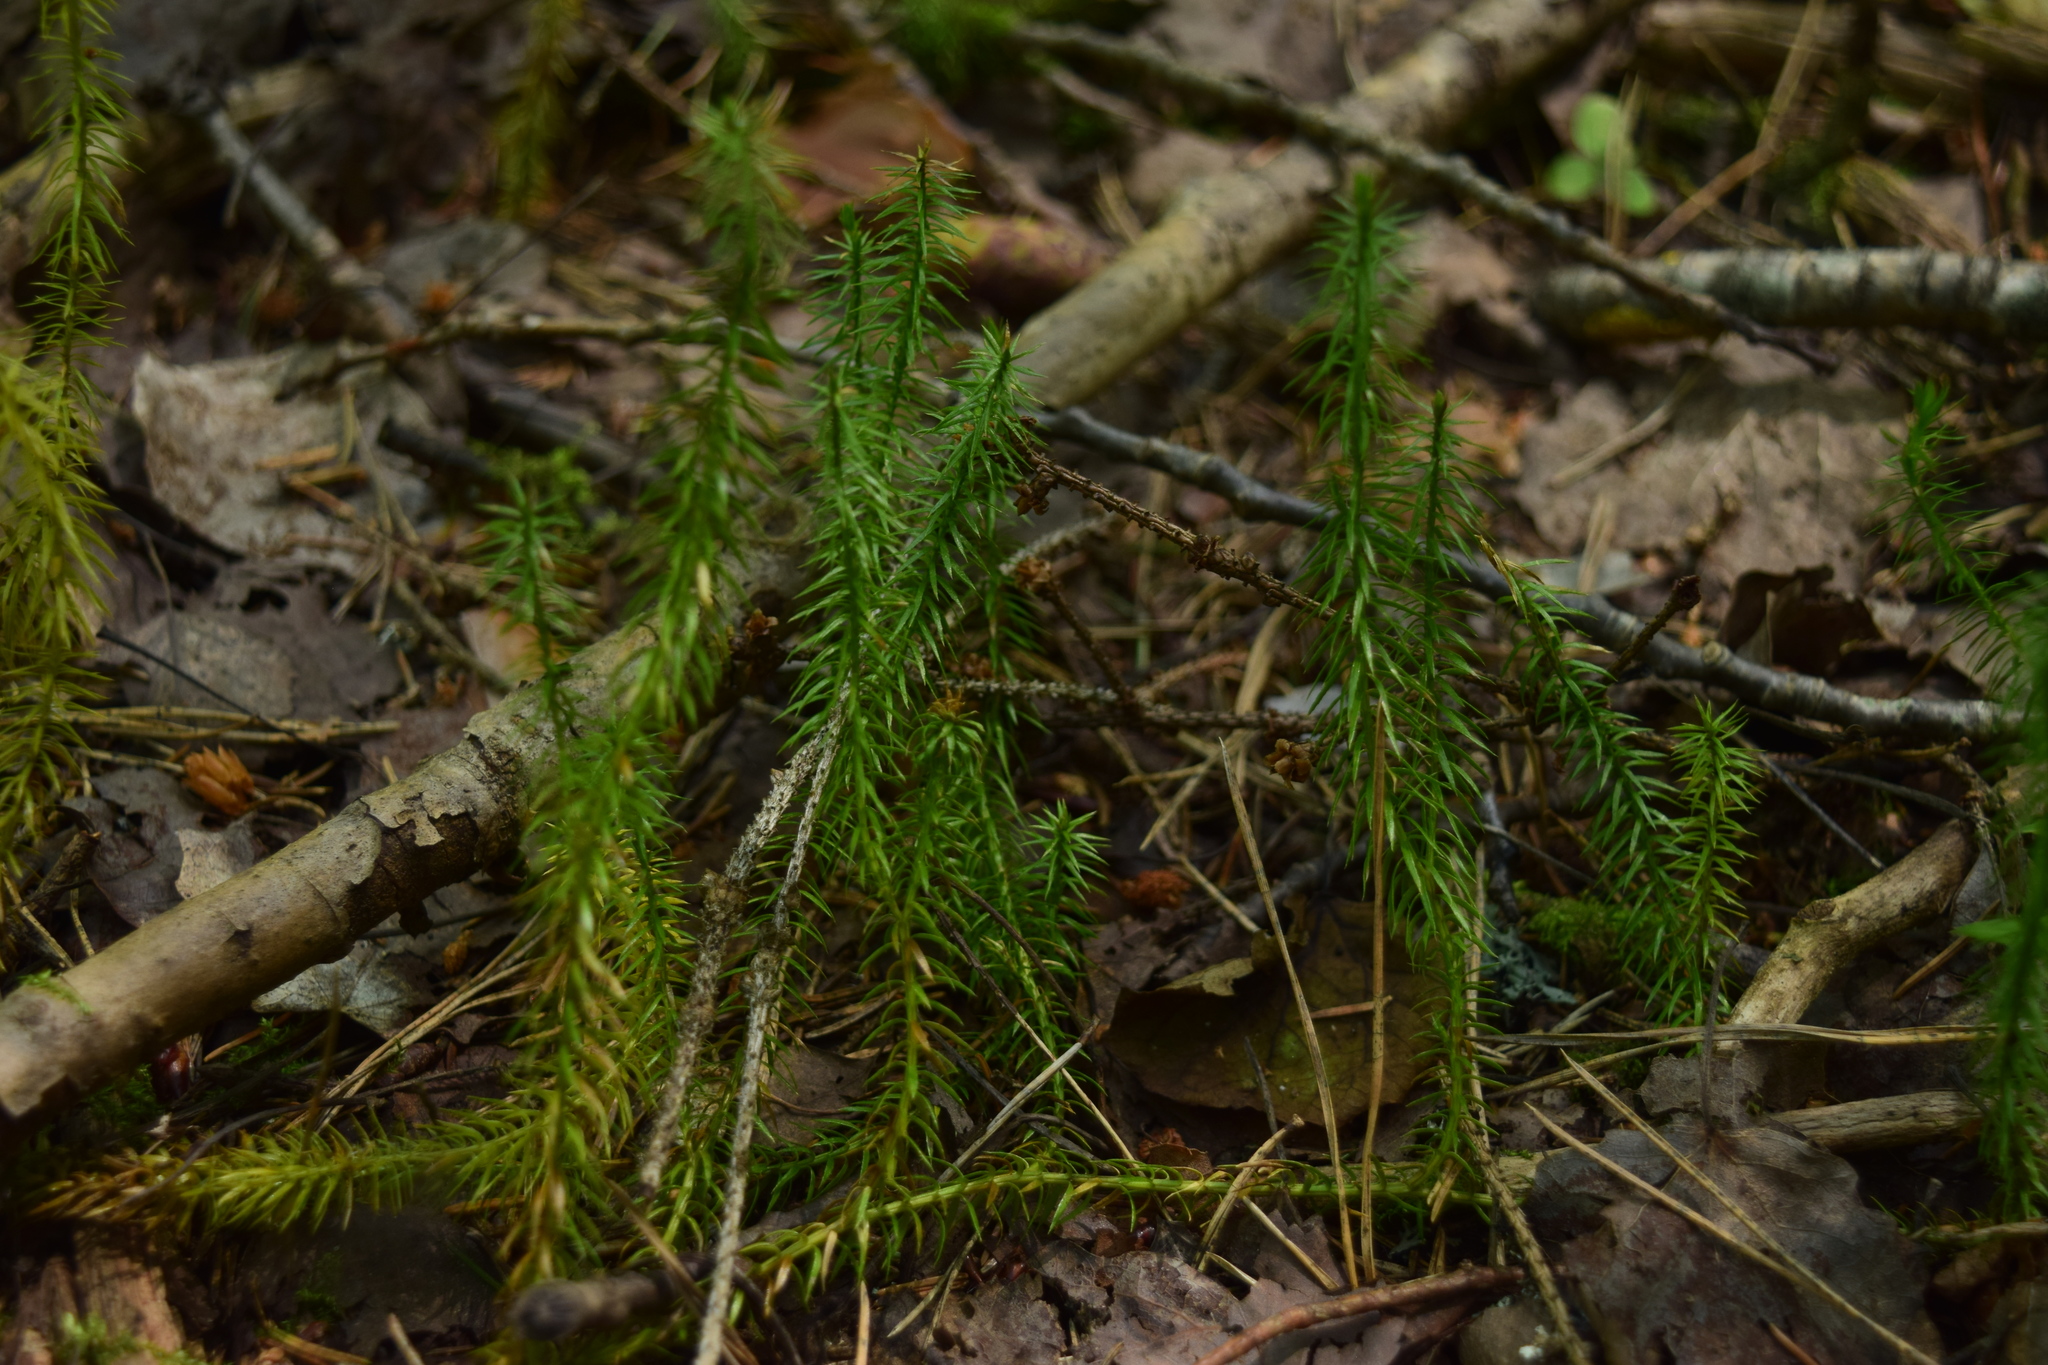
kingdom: Plantae
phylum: Tracheophyta
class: Lycopodiopsida
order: Lycopodiales
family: Lycopodiaceae
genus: Spinulum
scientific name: Spinulum annotinum
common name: Interrupted club-moss
